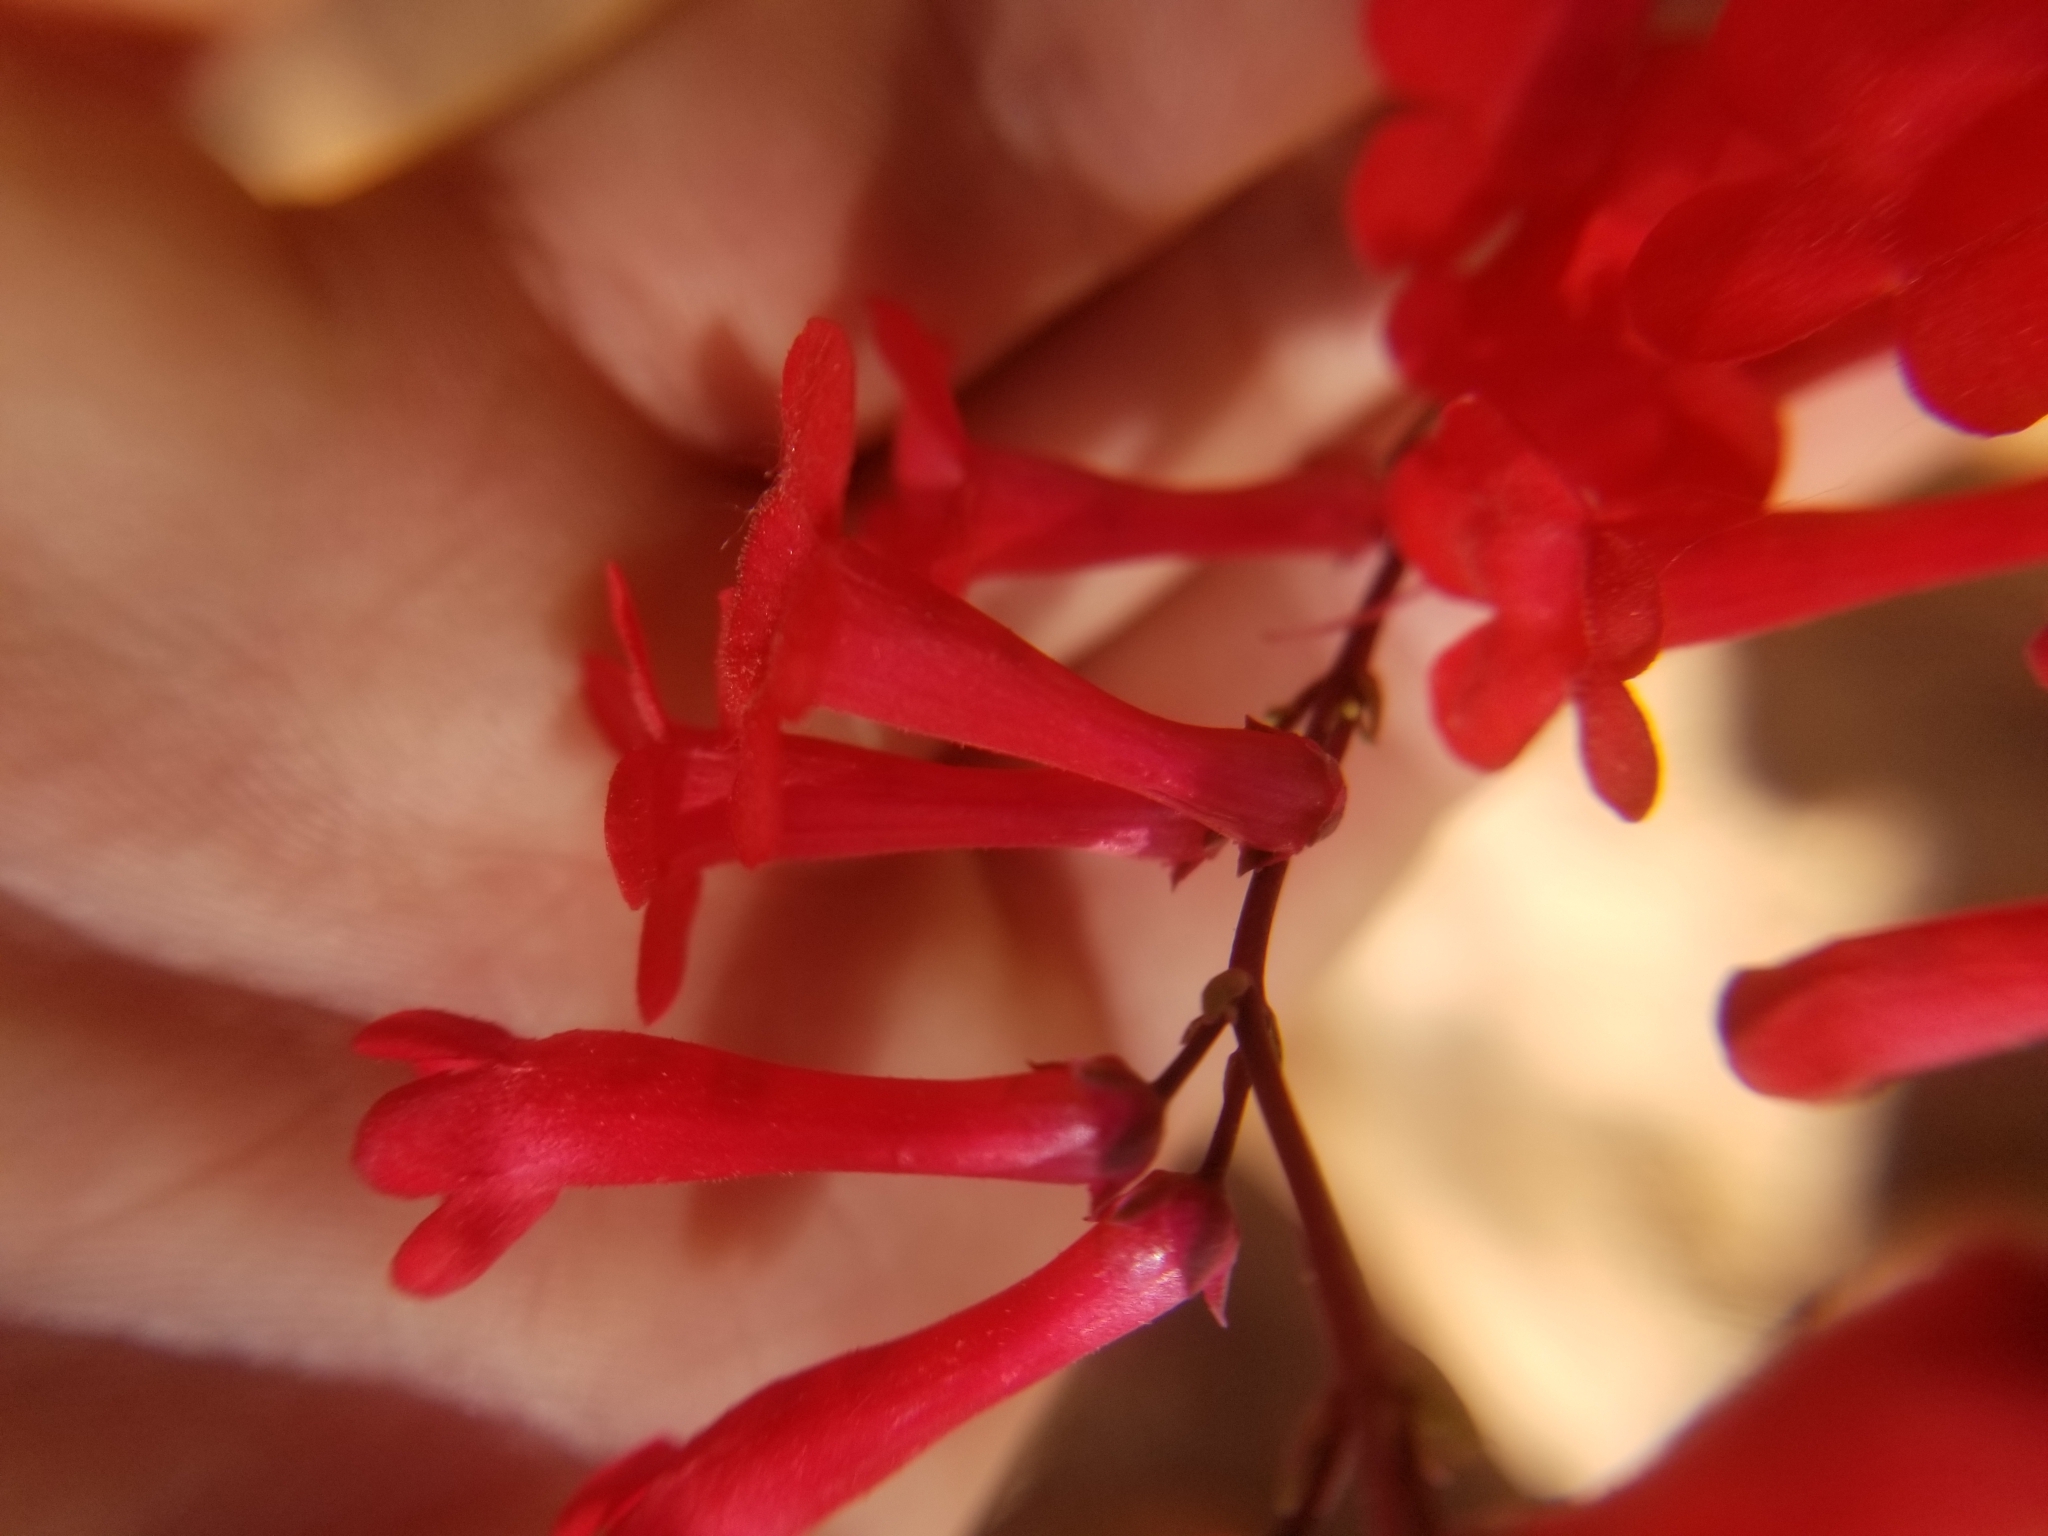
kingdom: Plantae
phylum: Tracheophyta
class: Magnoliopsida
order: Lamiales
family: Plantaginaceae
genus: Penstemon
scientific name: Penstemon utahensis
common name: Utah penstemon
